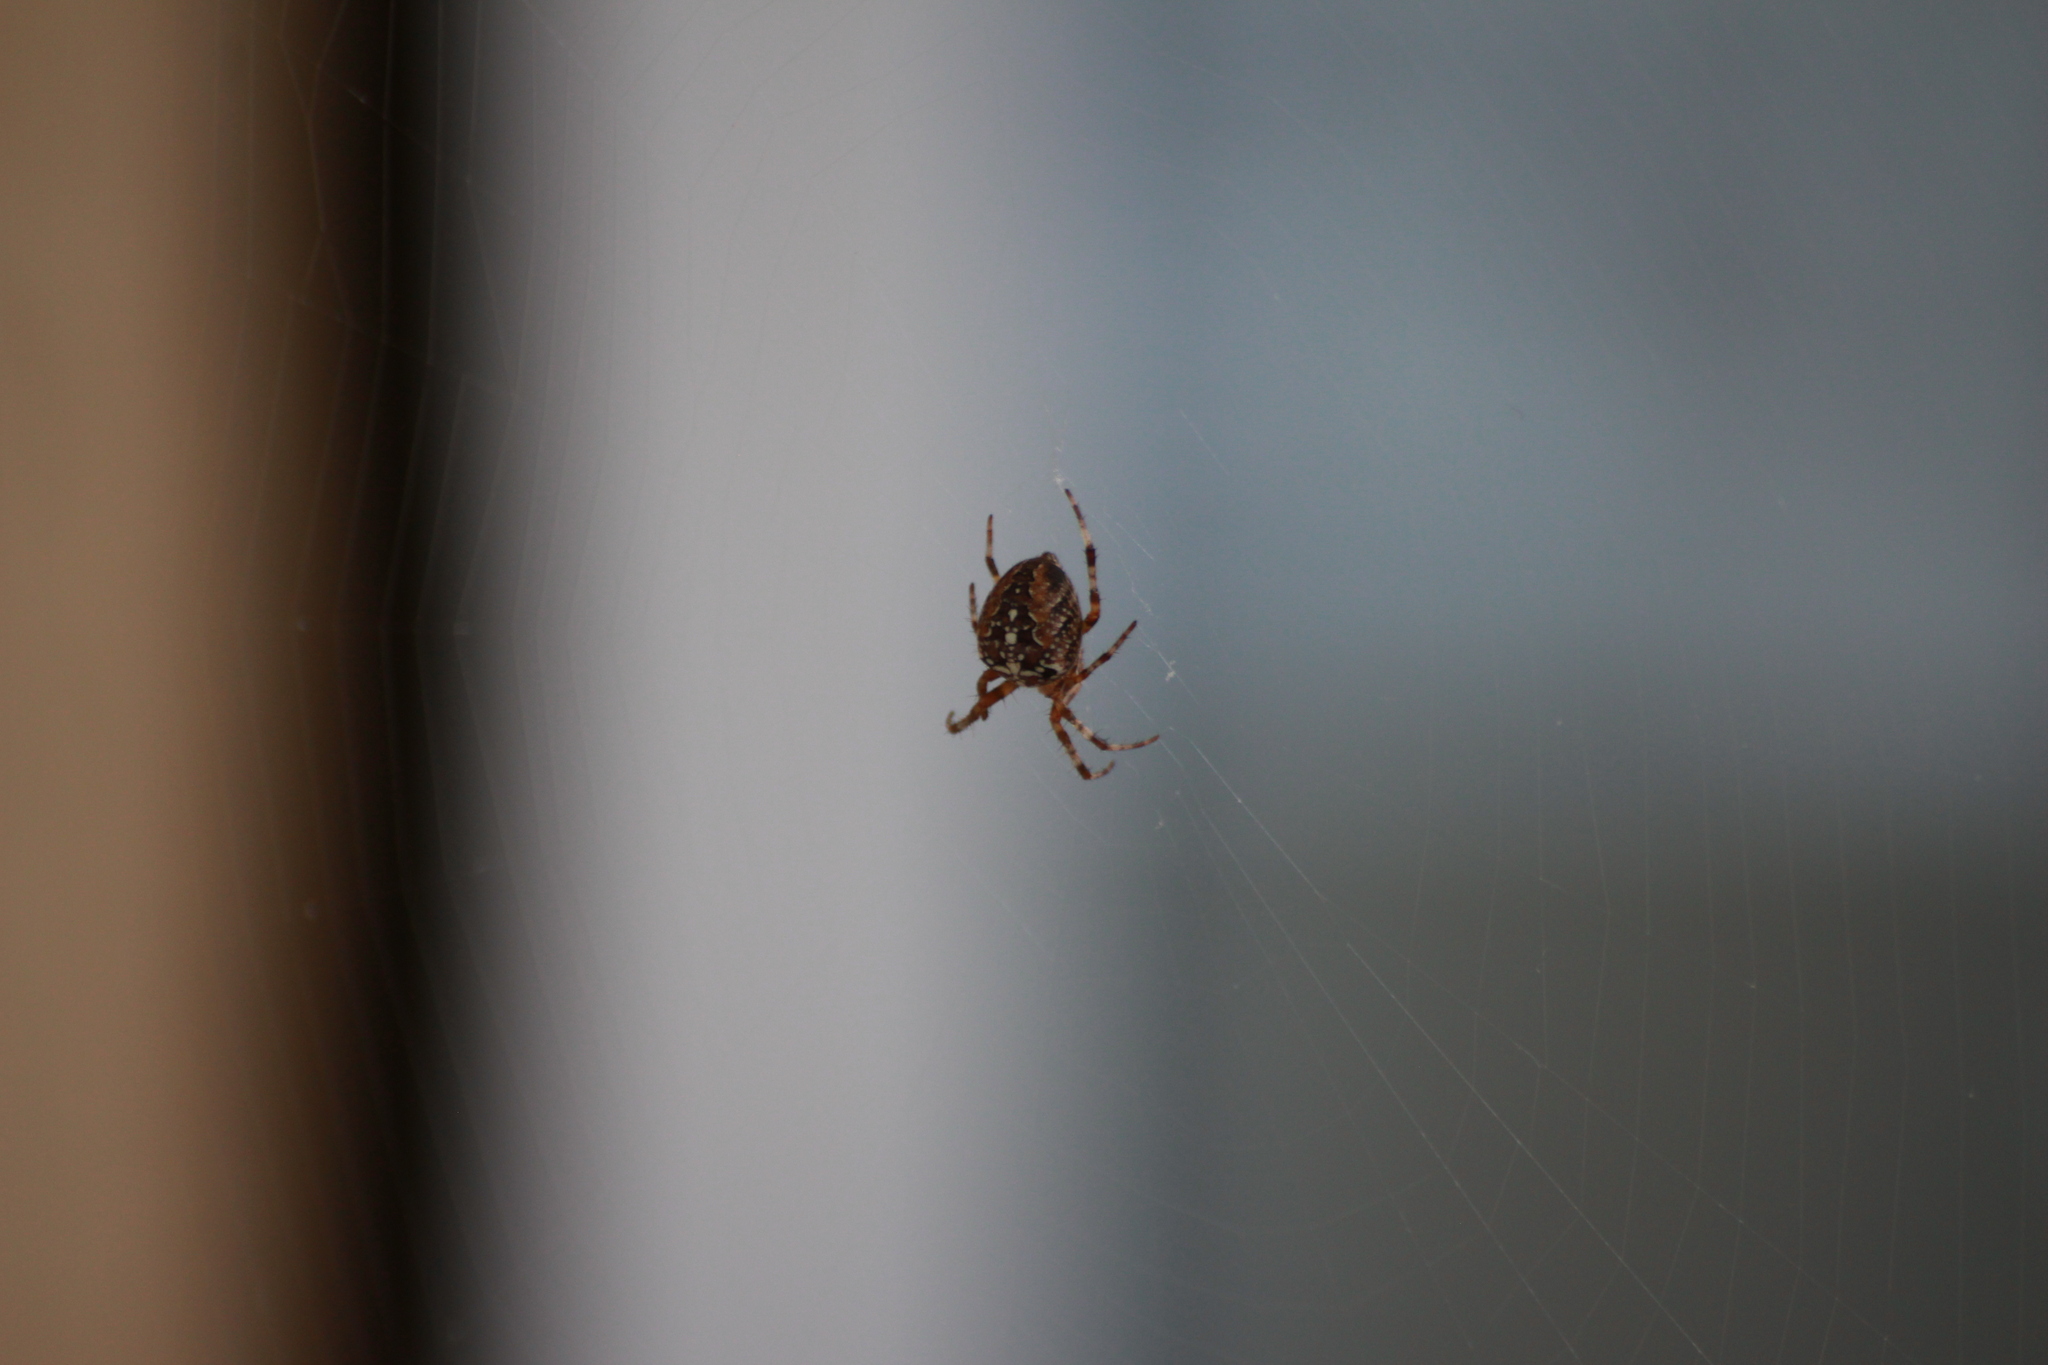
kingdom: Animalia
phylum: Arthropoda
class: Arachnida
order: Araneae
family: Araneidae
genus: Araneus
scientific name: Araneus diadematus
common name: Cross orbweaver
